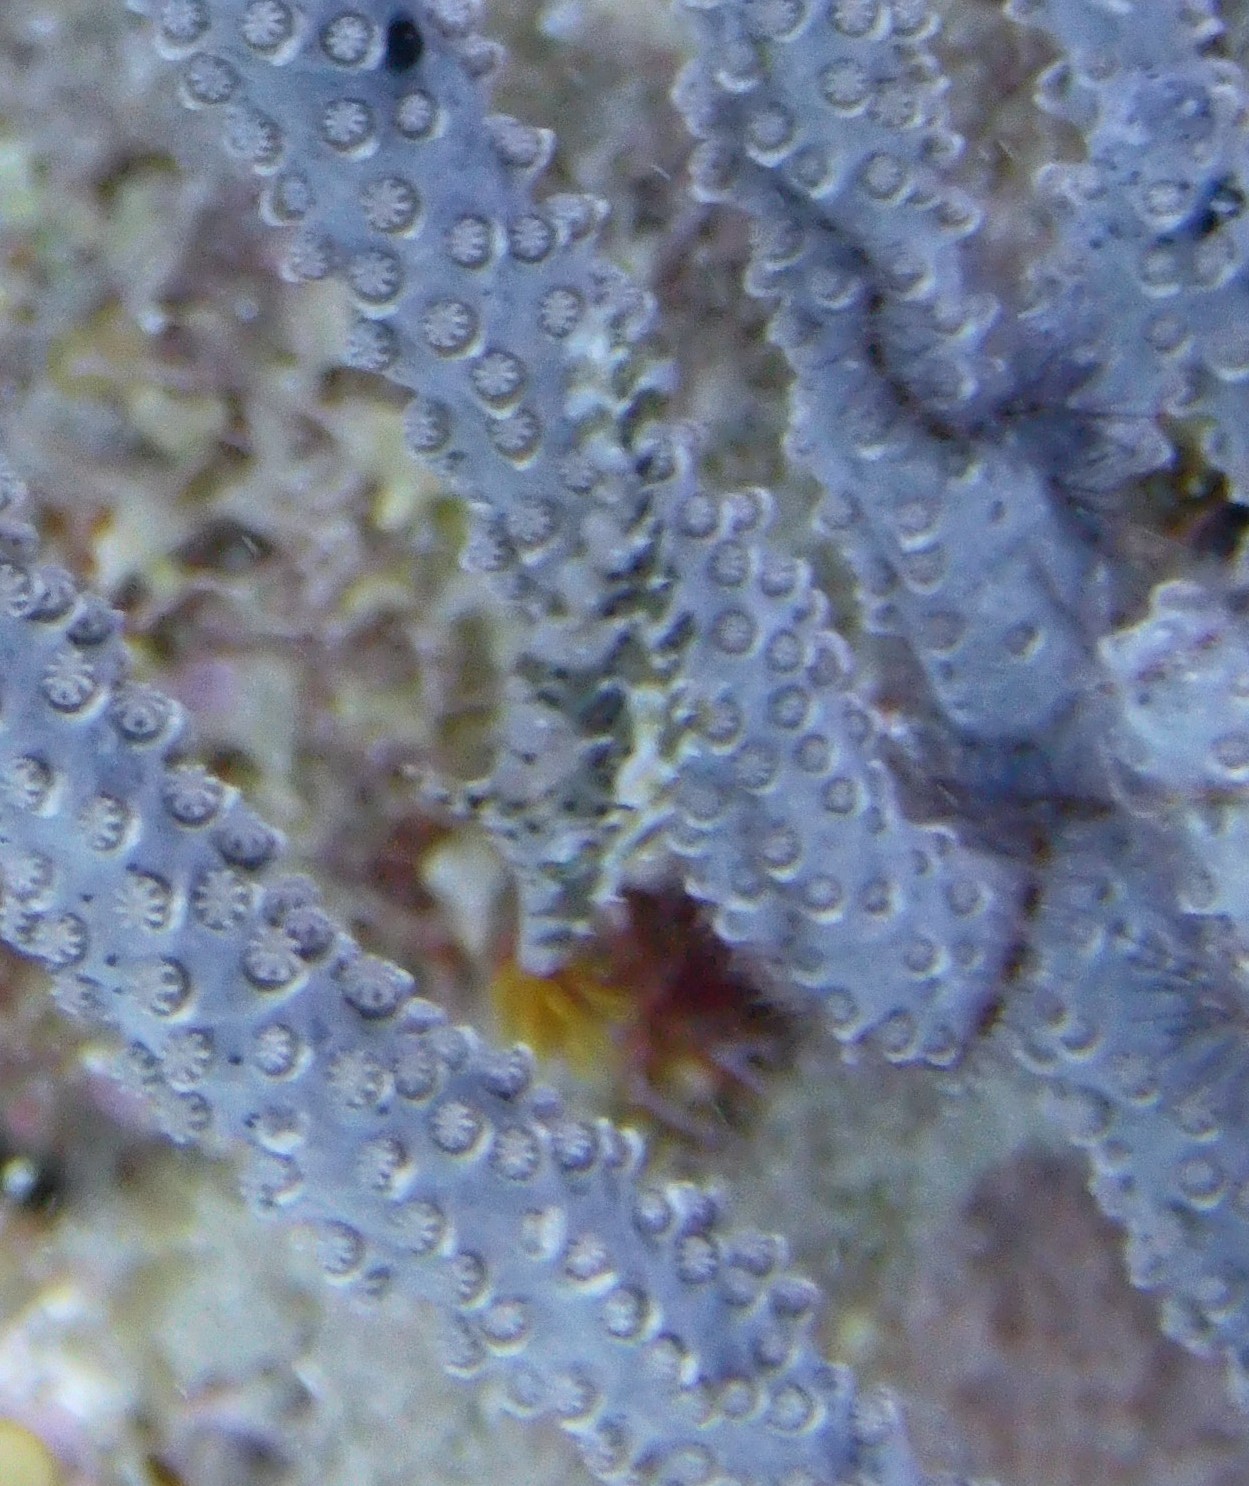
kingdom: Animalia
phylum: Chordata
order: Tetraodontiformes
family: Monacanthidae
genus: Monacanthus
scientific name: Monacanthus tuckeri
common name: Slender filefish
